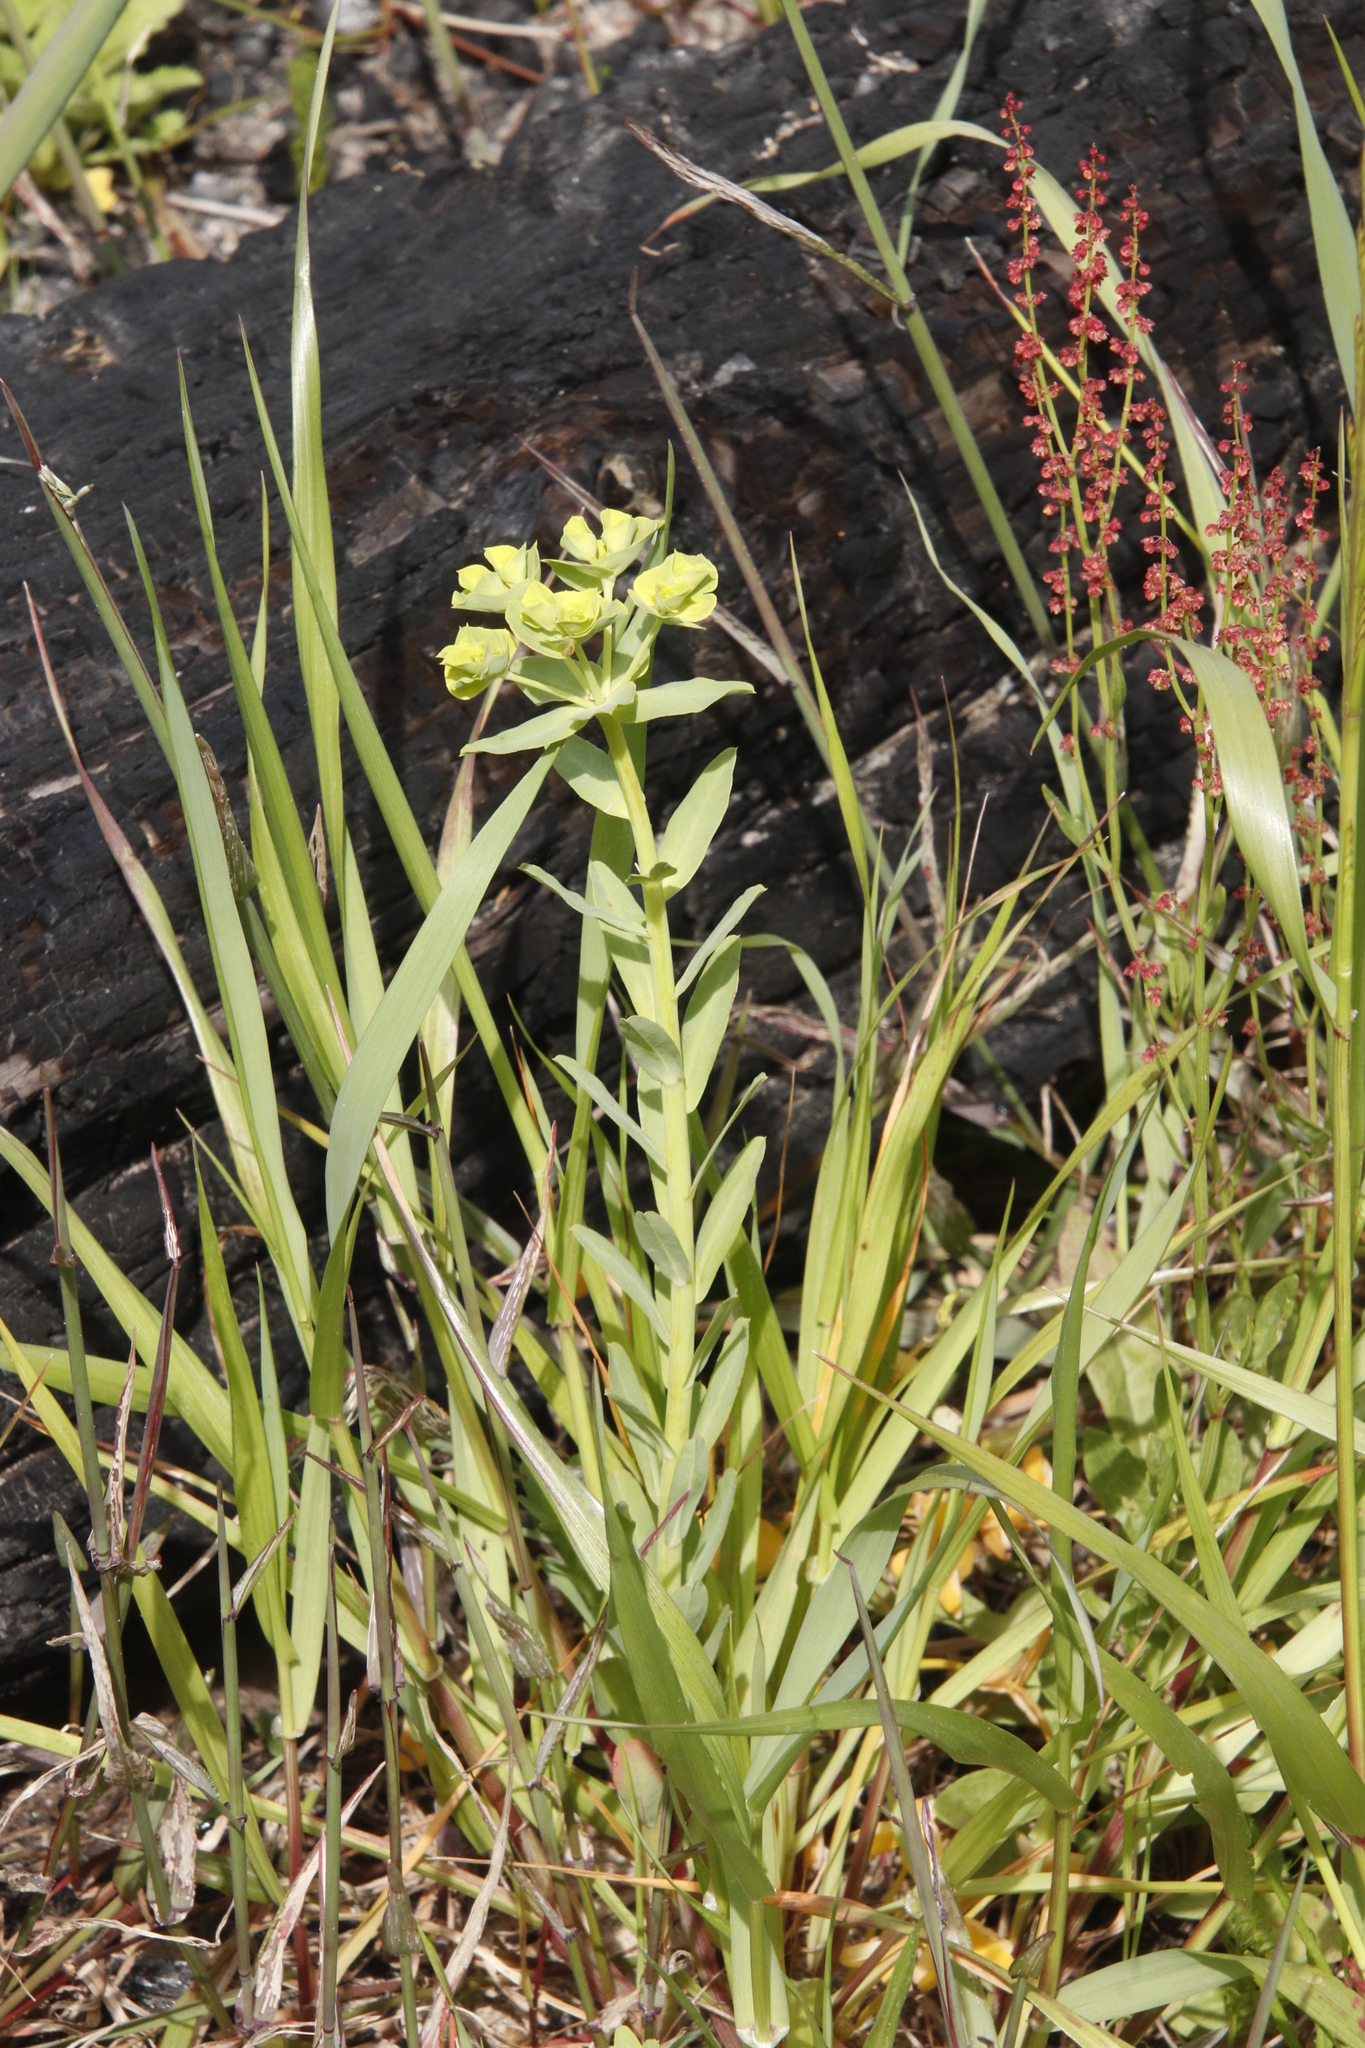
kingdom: Plantae
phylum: Tracheophyta
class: Magnoliopsida
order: Malpighiales
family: Euphorbiaceae
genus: Euphorbia
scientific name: Euphorbia terracina
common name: Geraldton carnation weed
